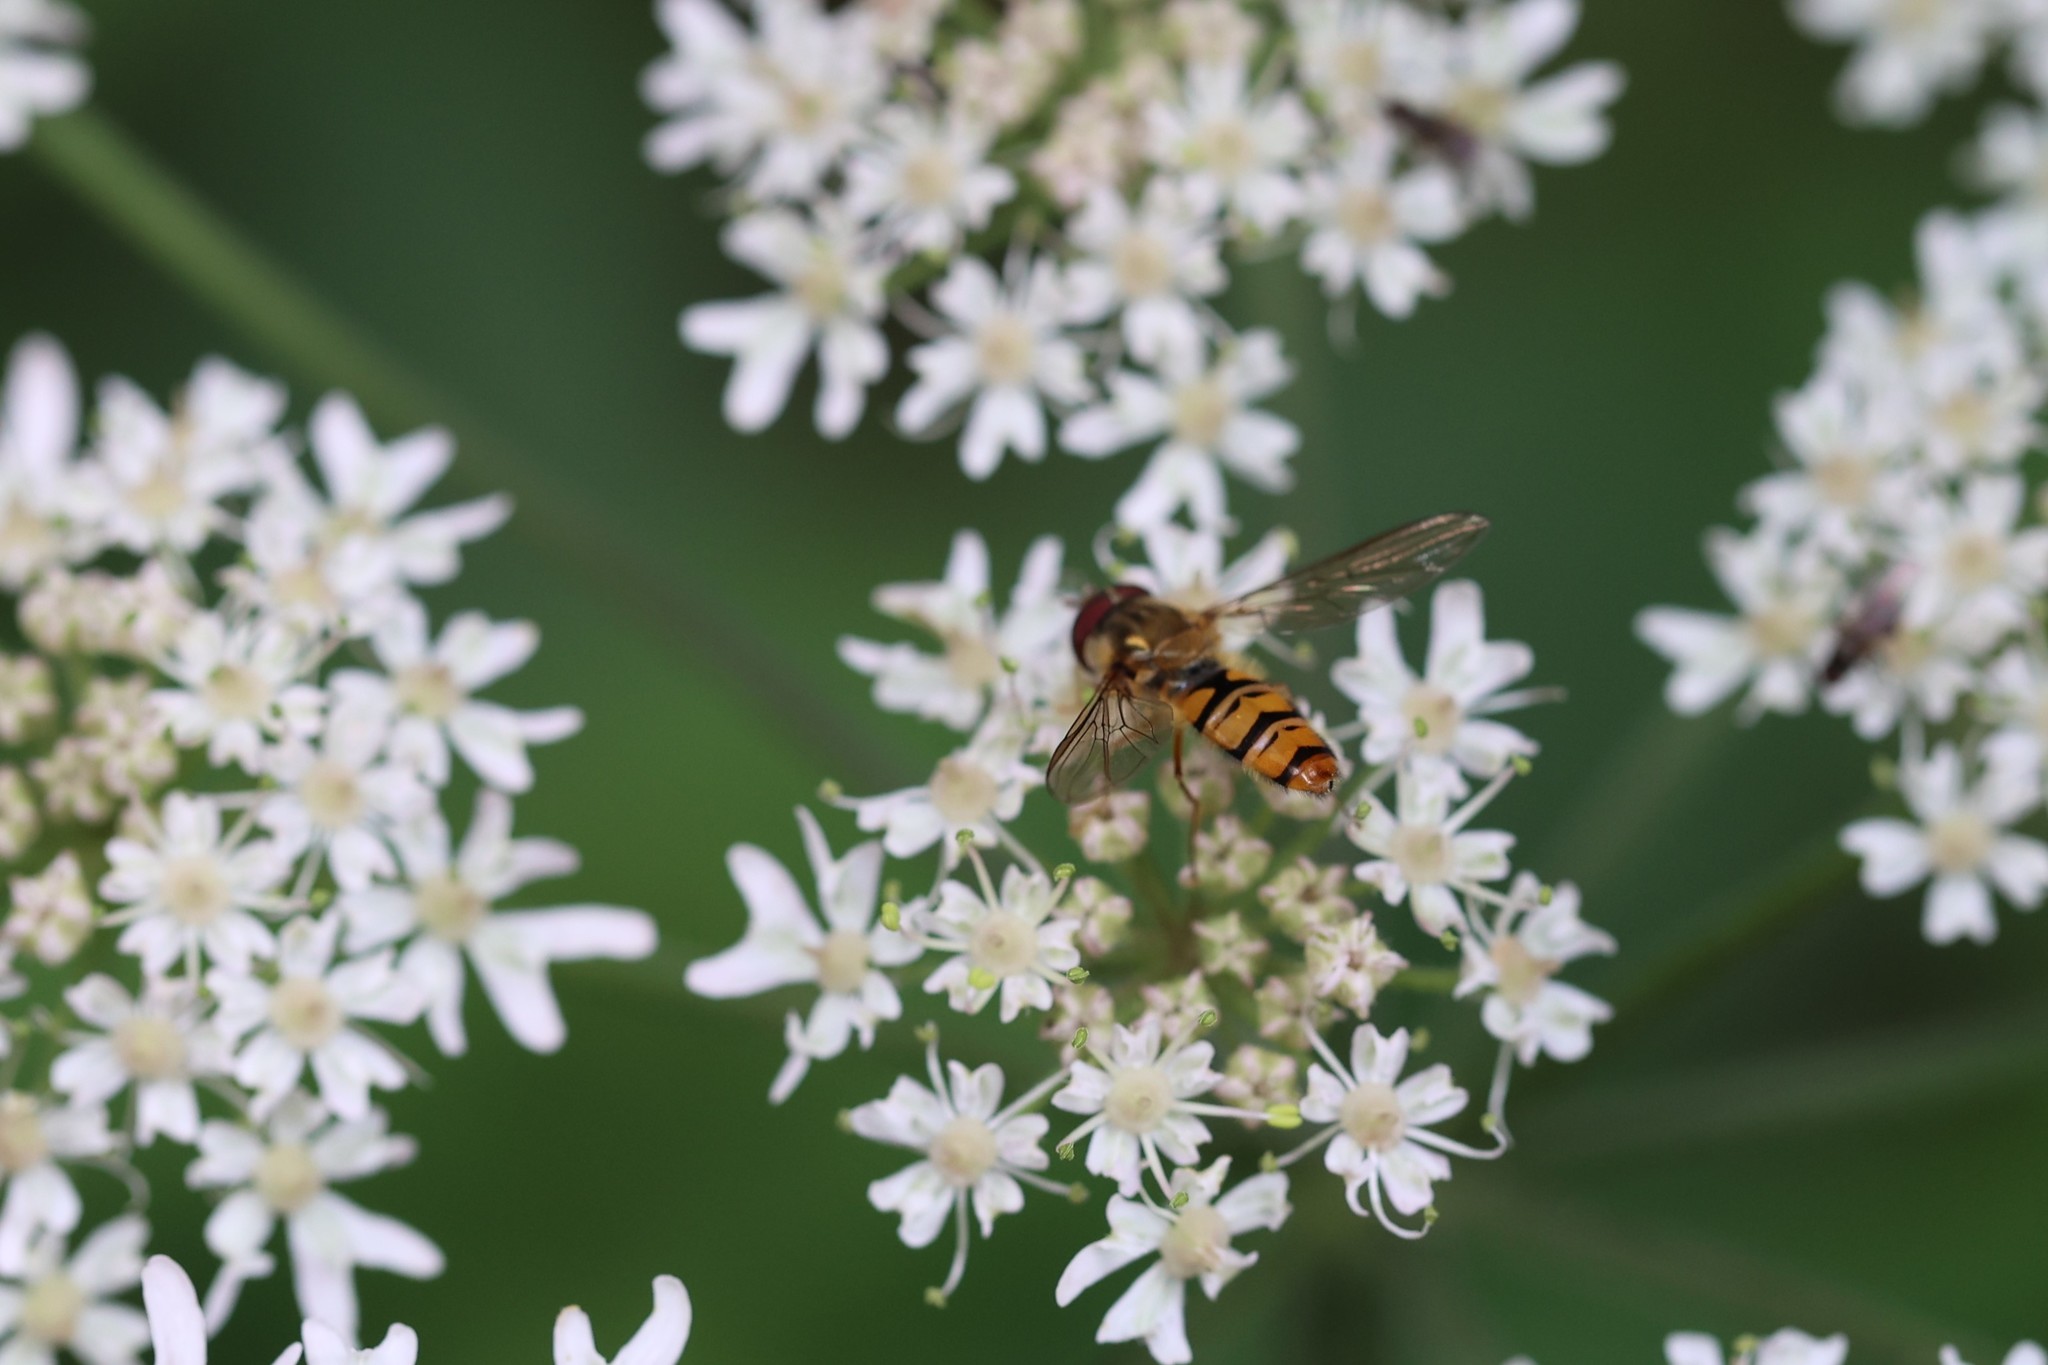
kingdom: Animalia
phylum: Arthropoda
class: Insecta
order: Diptera
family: Syrphidae
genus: Episyrphus
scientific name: Episyrphus balteatus
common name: Marmalade hoverfly
